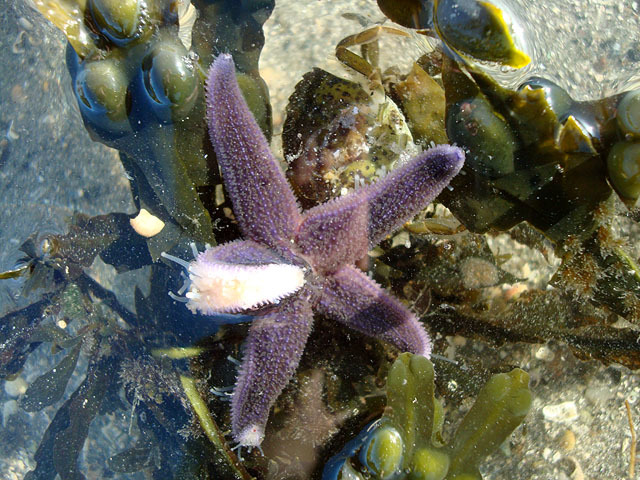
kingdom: Animalia
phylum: Echinodermata
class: Asteroidea
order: Forcipulatida
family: Asteriidae
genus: Asterias
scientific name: Asterias rubens
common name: Common starfish
